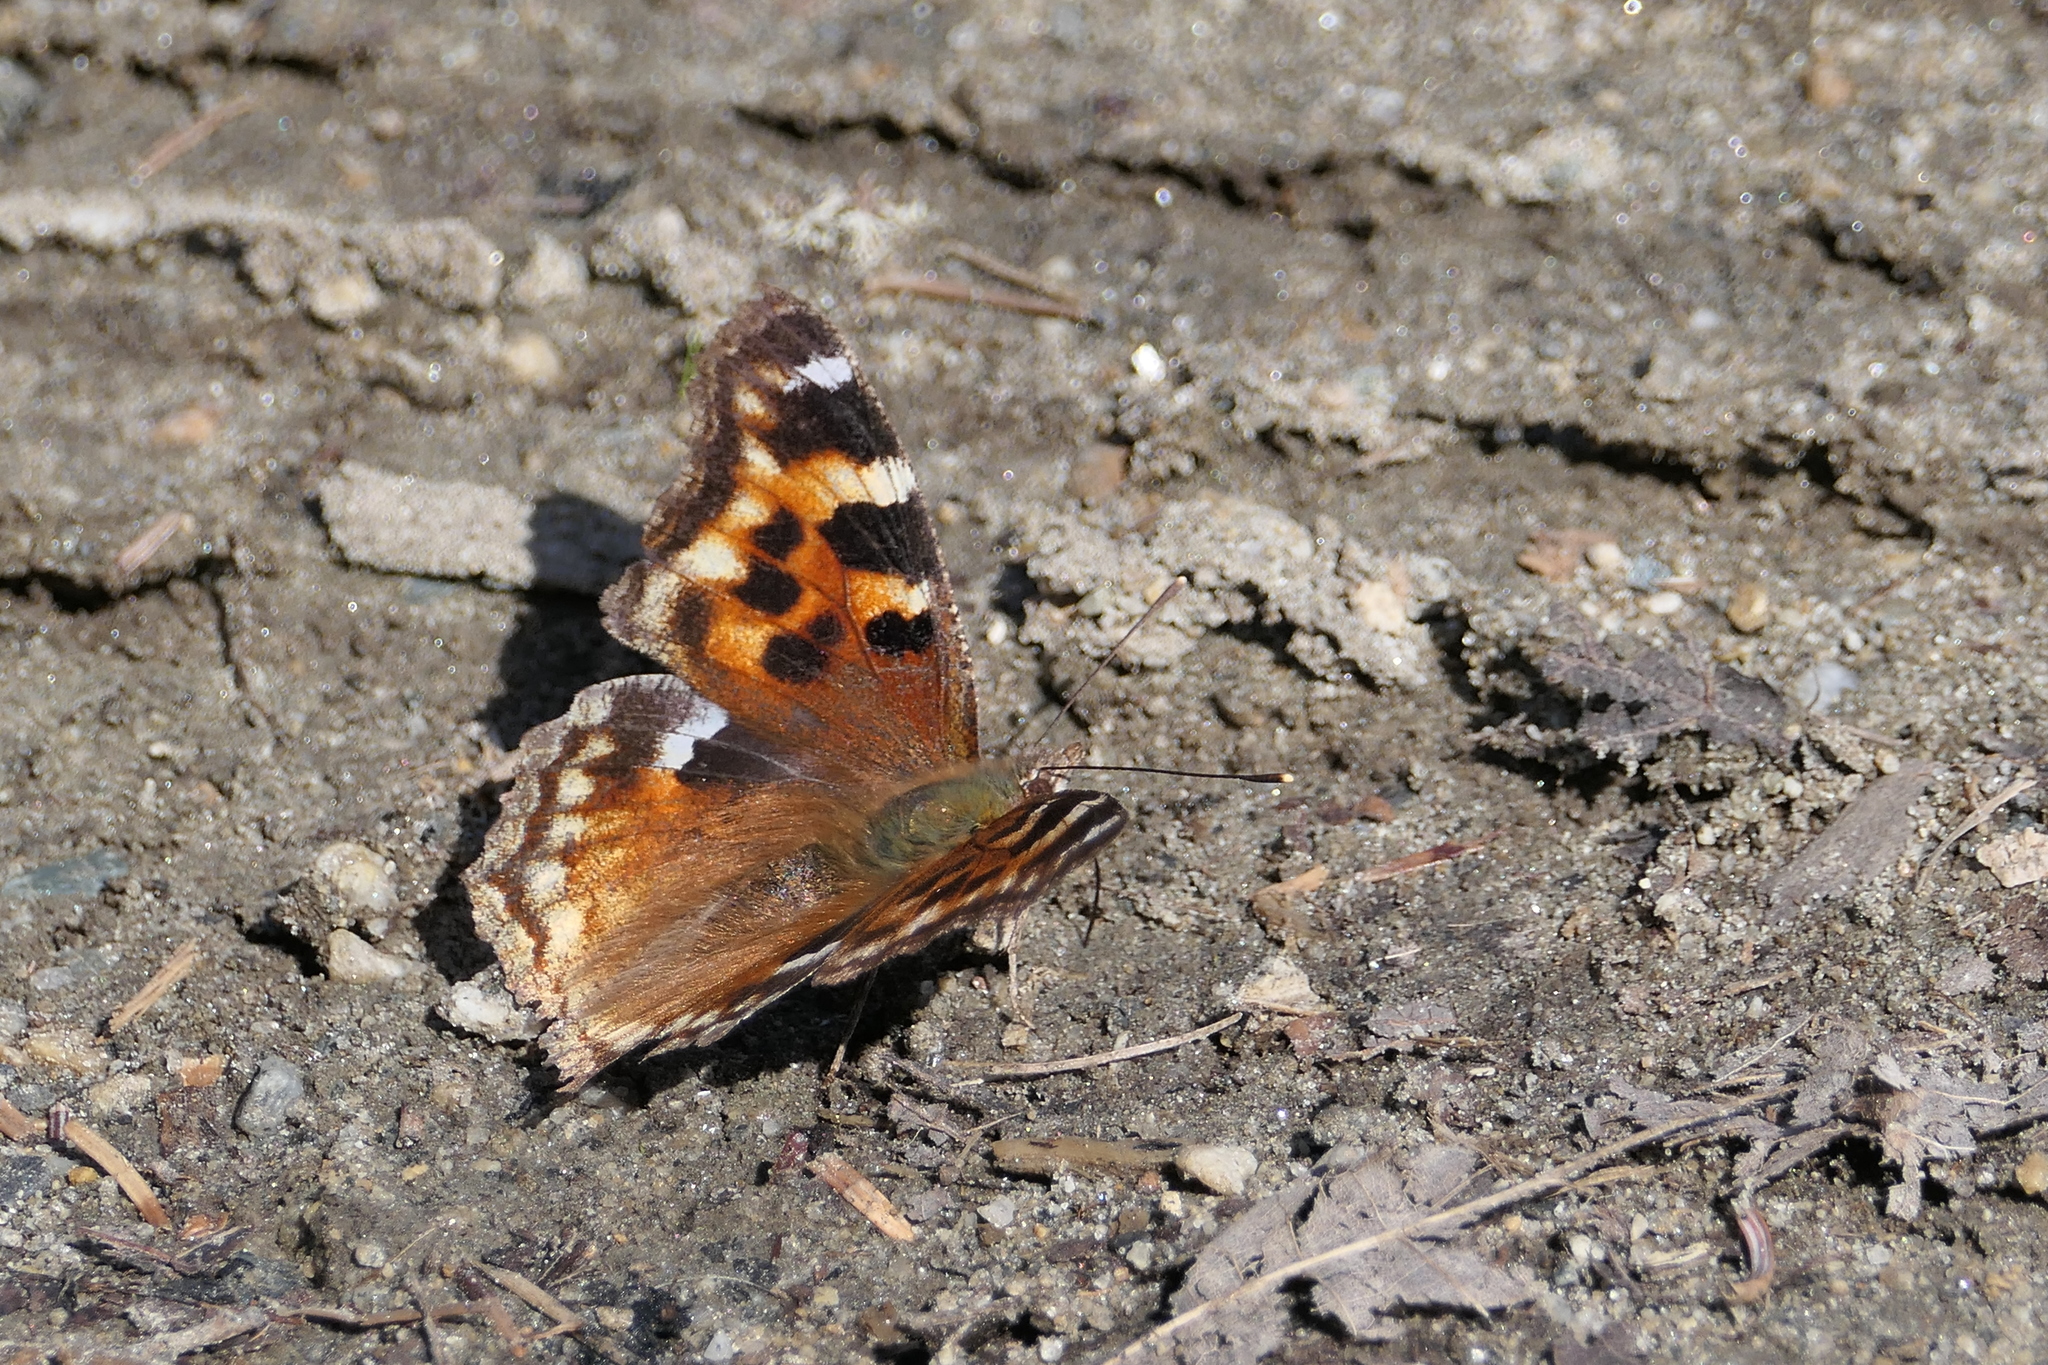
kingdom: Animalia
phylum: Arthropoda
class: Insecta
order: Lepidoptera
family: Nymphalidae
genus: Polygonia
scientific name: Polygonia vaualbum
